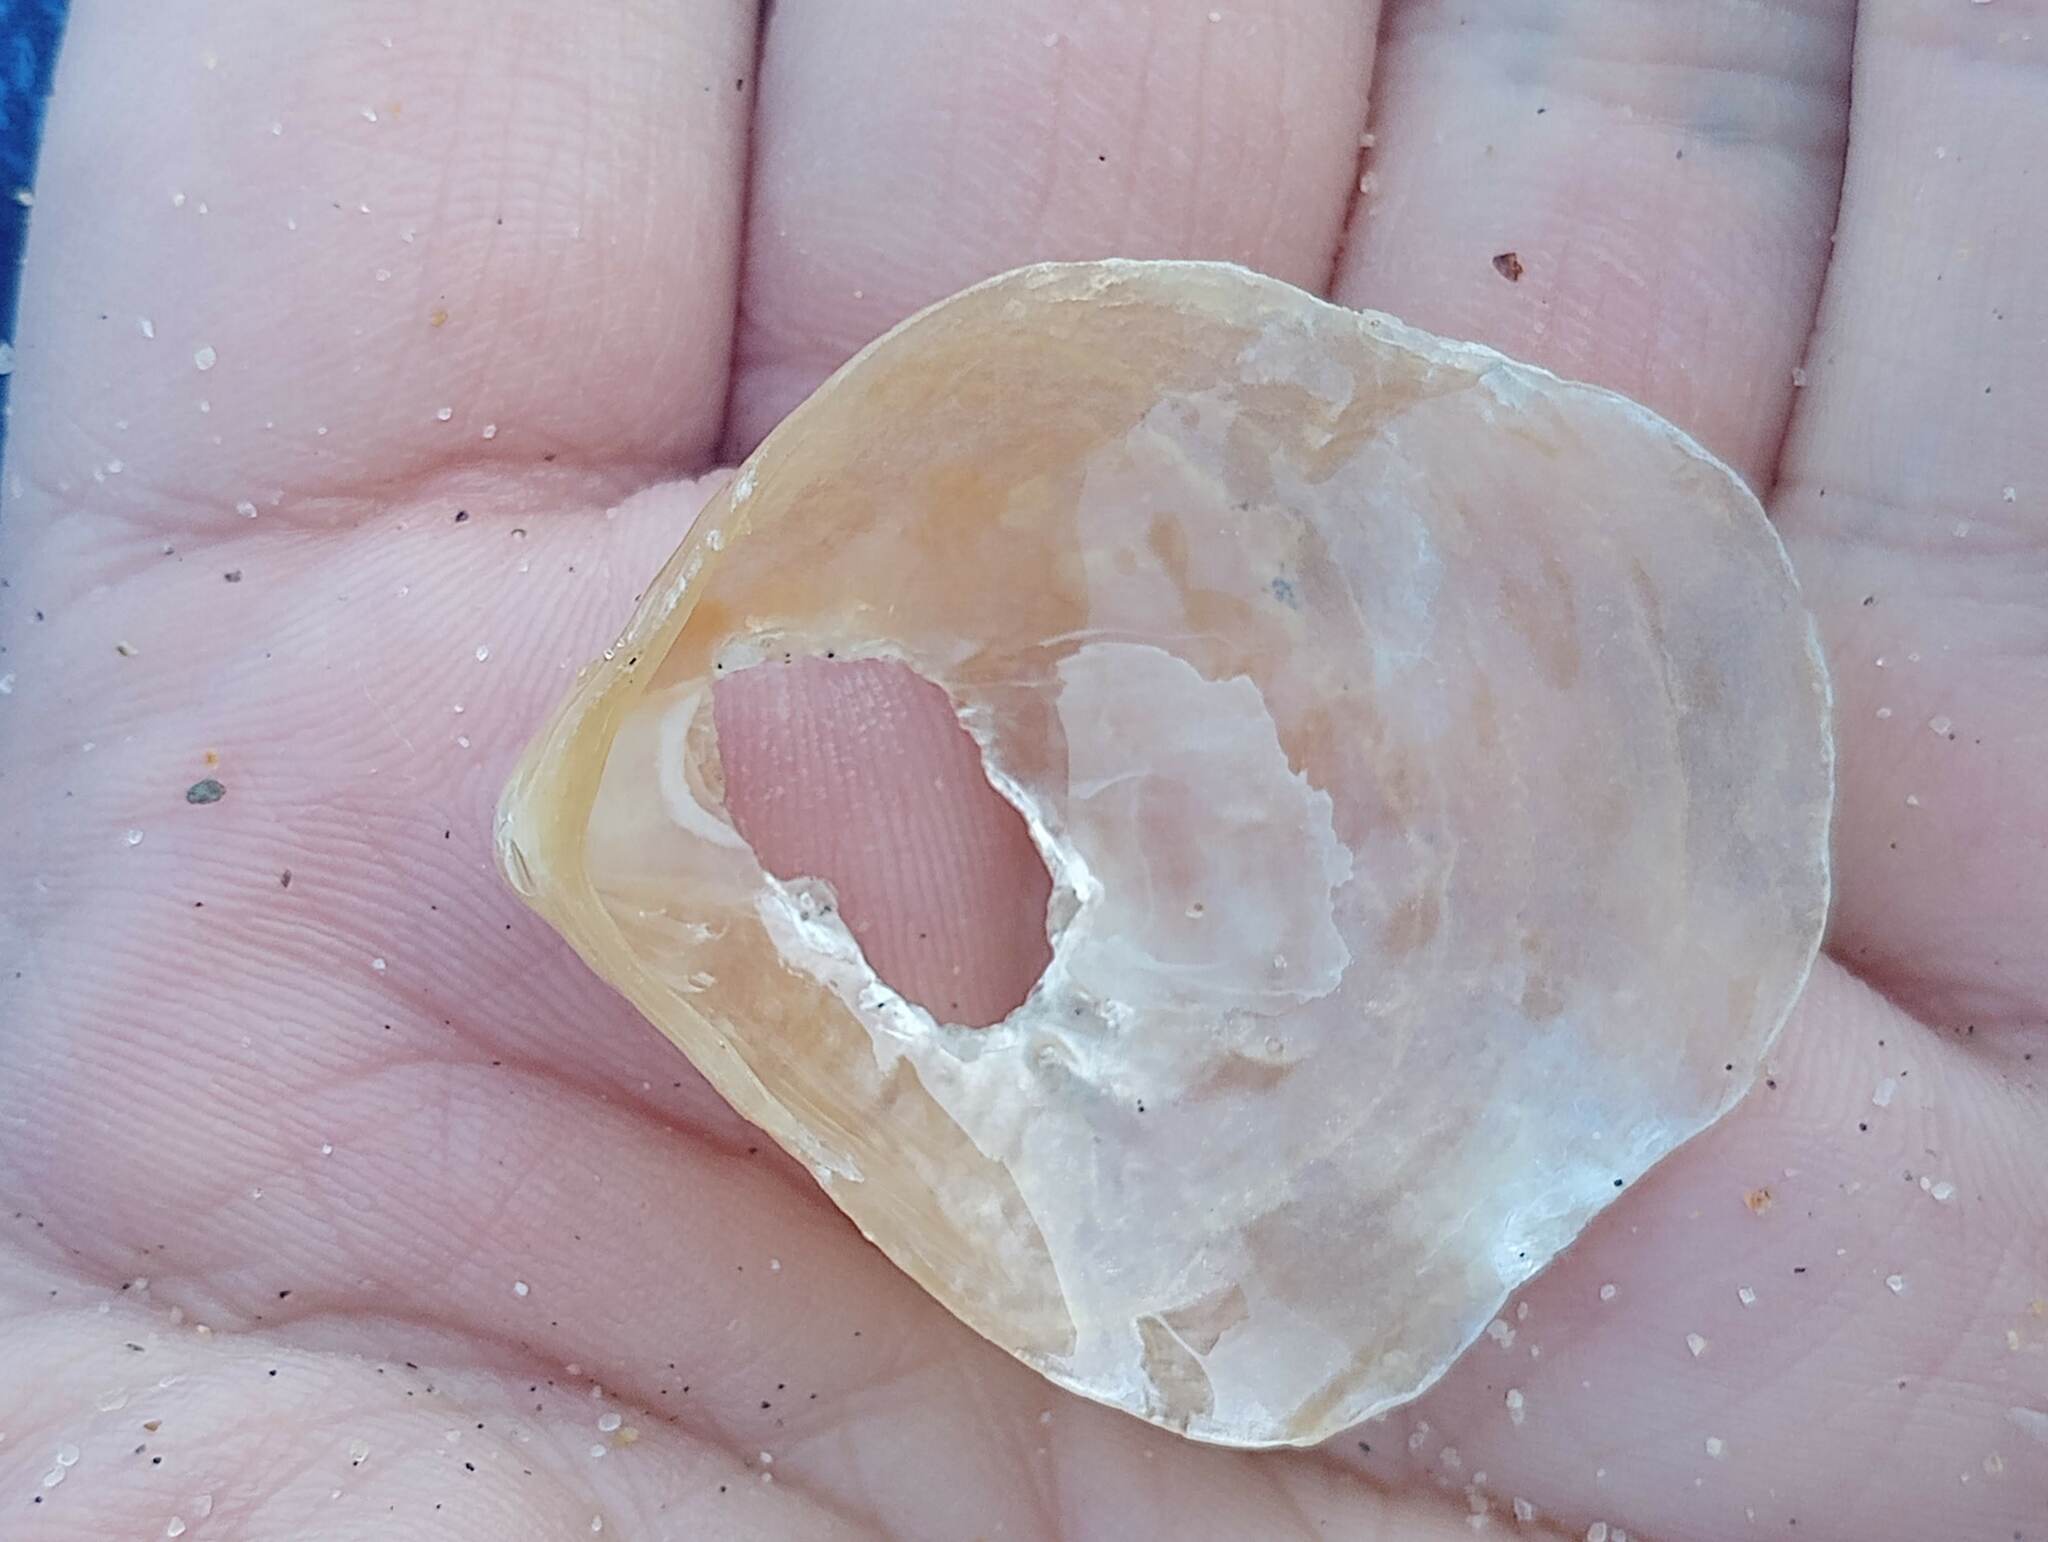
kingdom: Animalia
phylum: Mollusca
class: Bivalvia
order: Pectinida
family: Anomiidae
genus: Anomia
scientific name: Anomia peruviana
